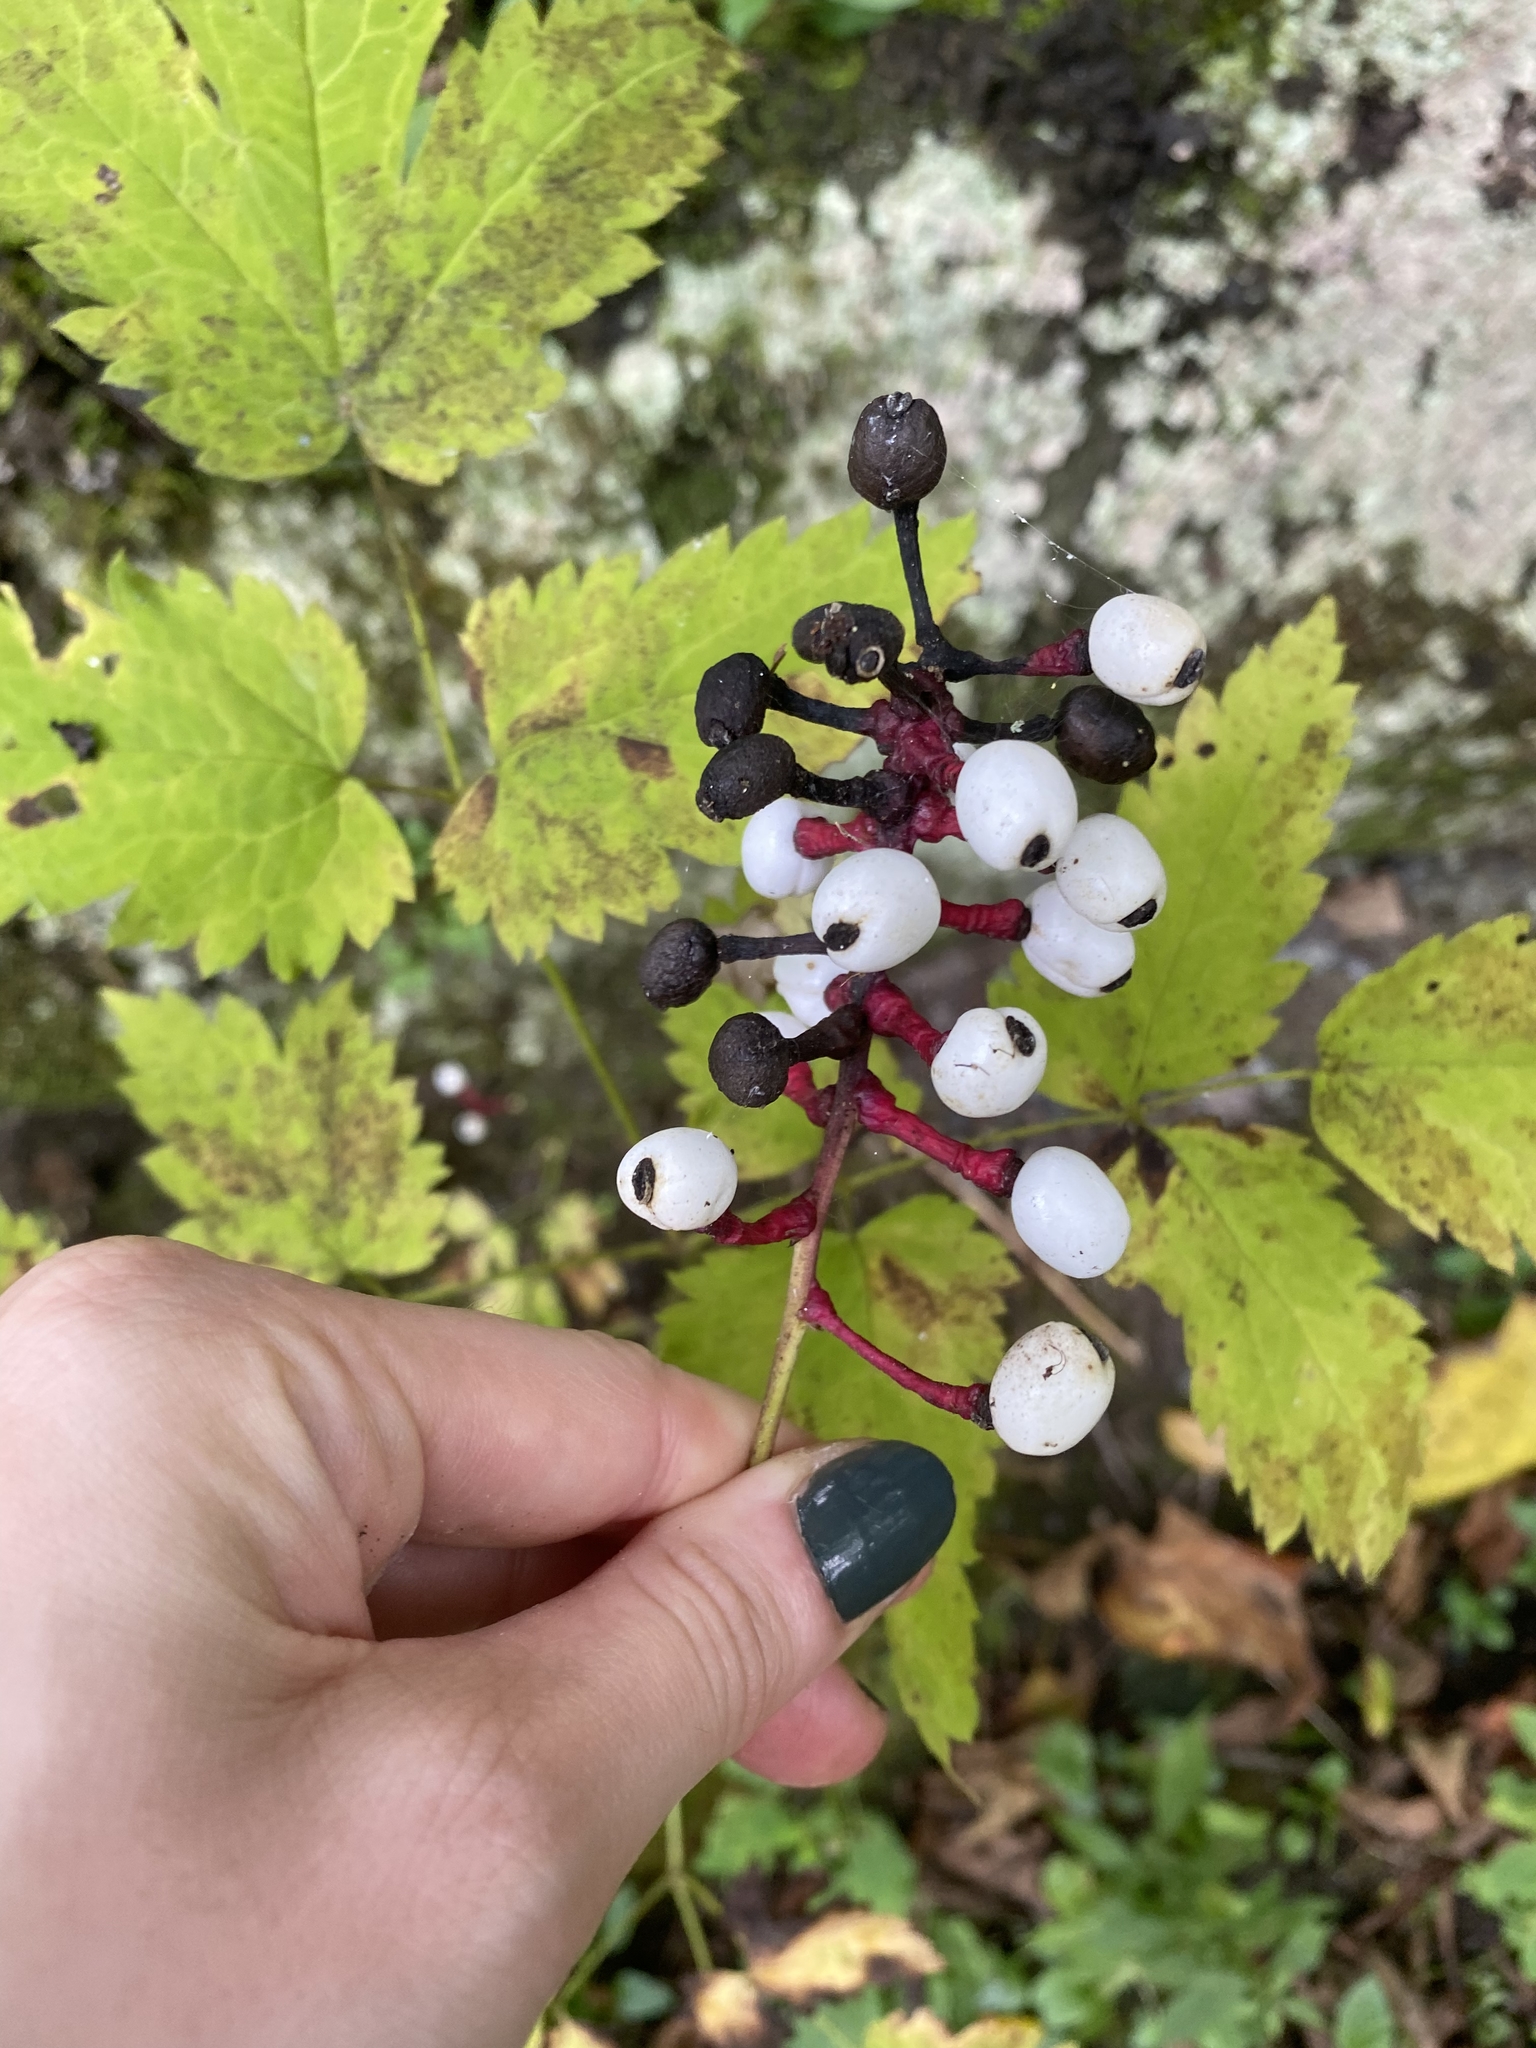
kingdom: Plantae
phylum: Tracheophyta
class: Magnoliopsida
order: Ranunculales
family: Ranunculaceae
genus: Actaea
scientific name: Actaea pachypoda
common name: Doll's-eyes
